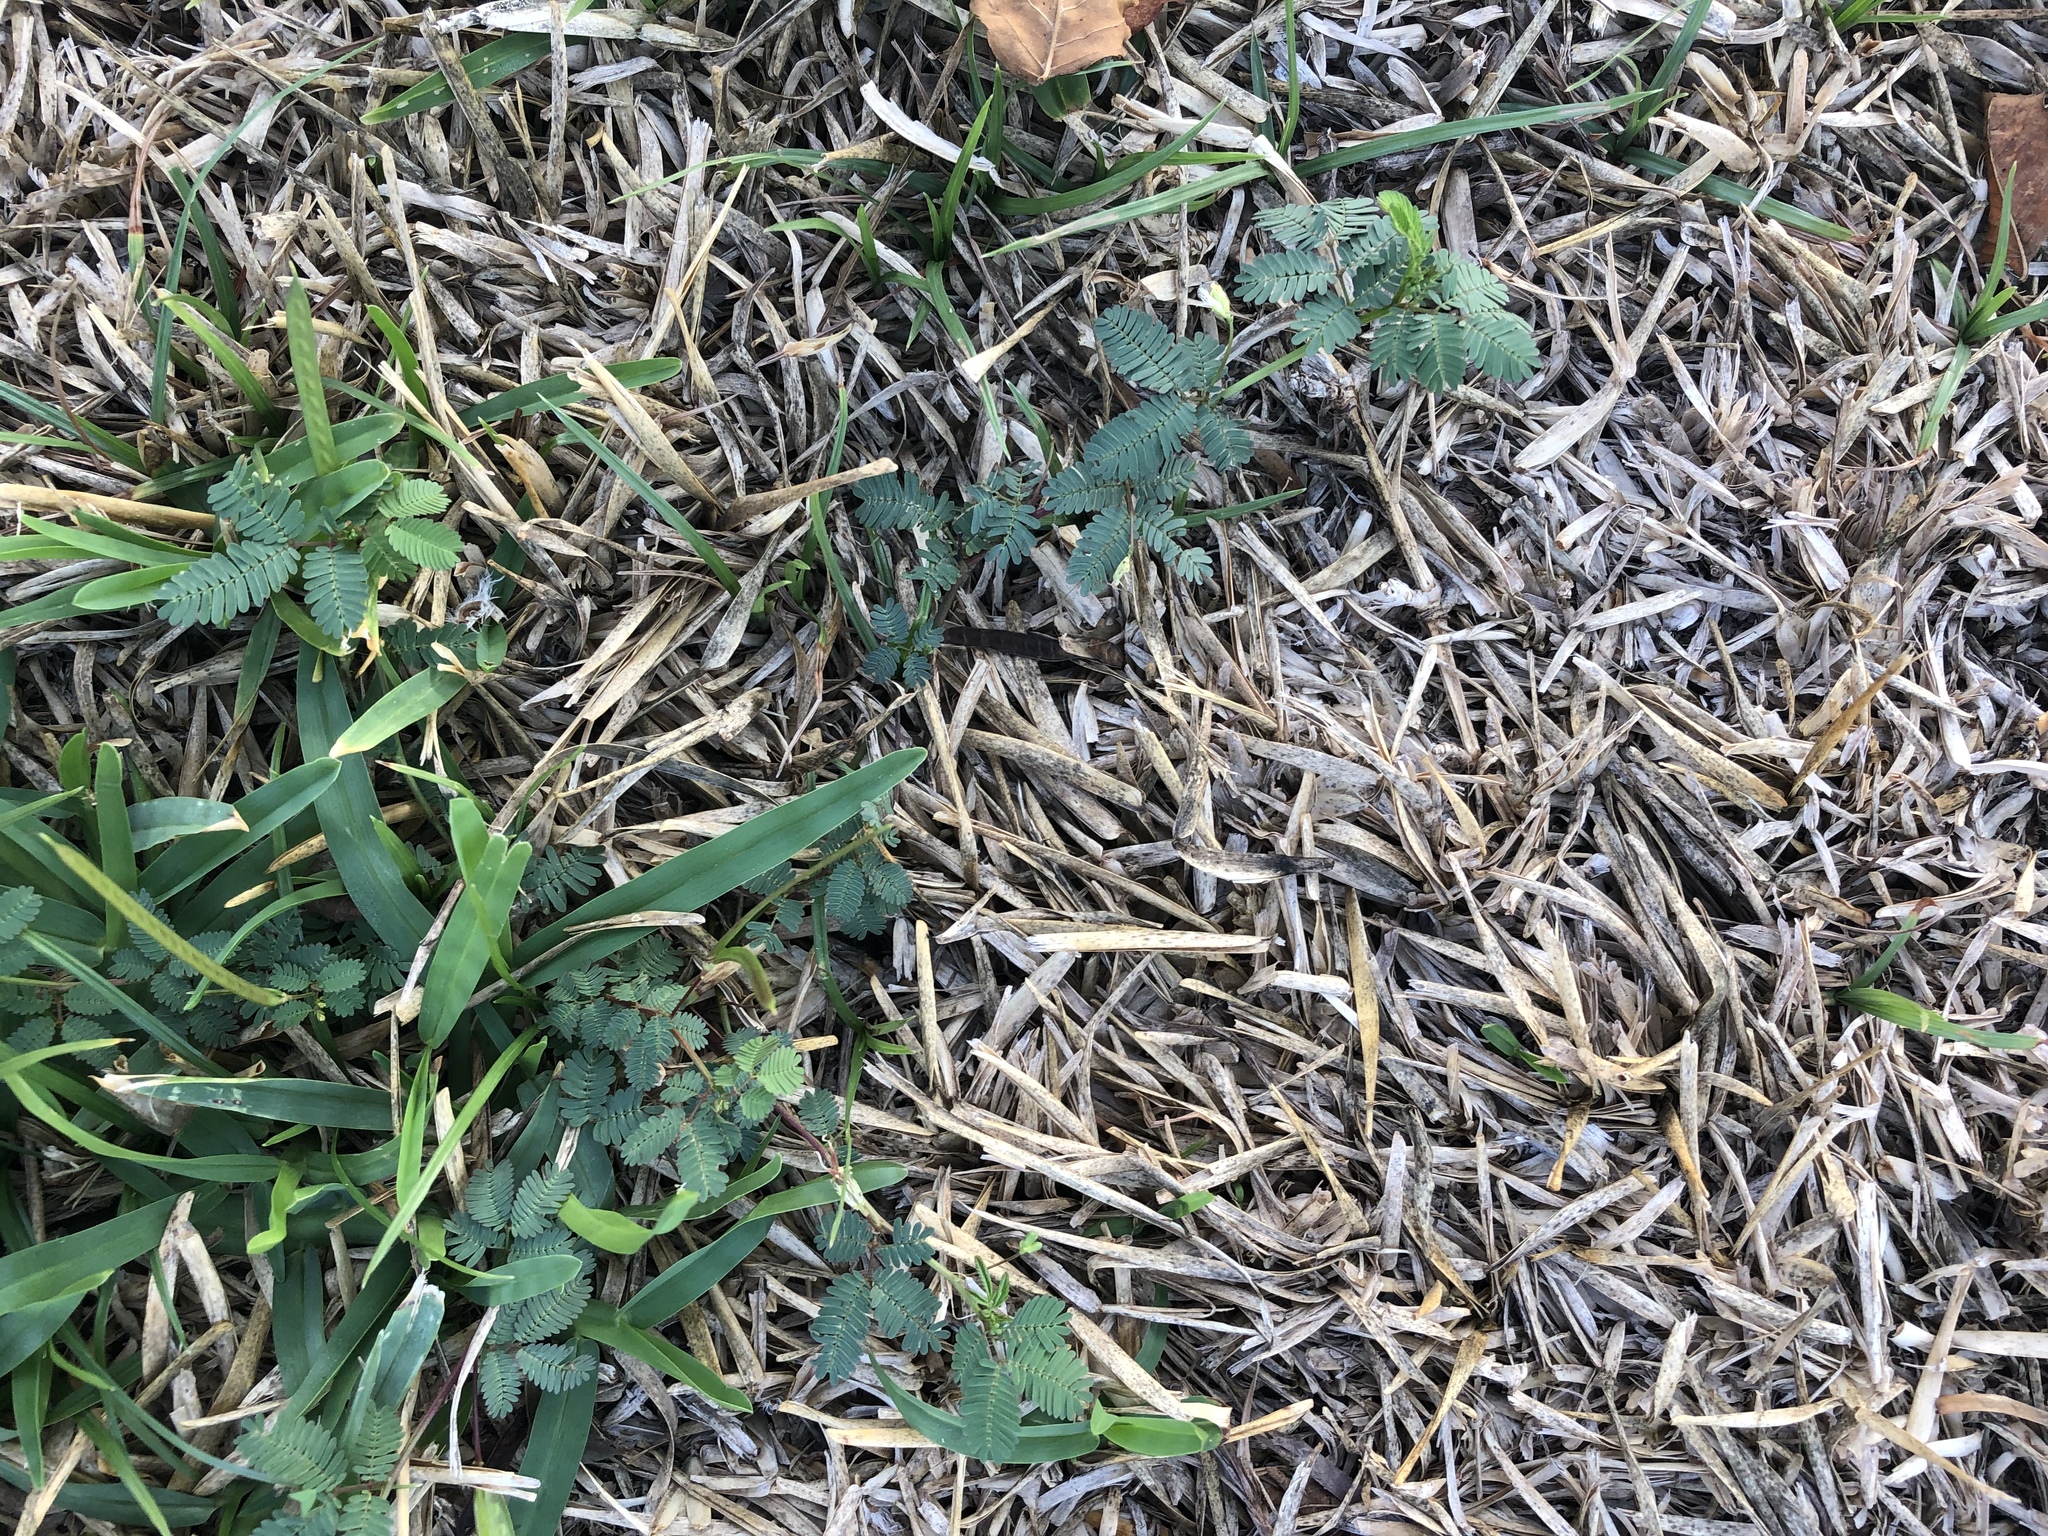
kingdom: Plantae
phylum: Tracheophyta
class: Magnoliopsida
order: Fabales
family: Fabaceae
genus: Desmanthus
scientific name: Desmanthus virgatus
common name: Wild tantan
